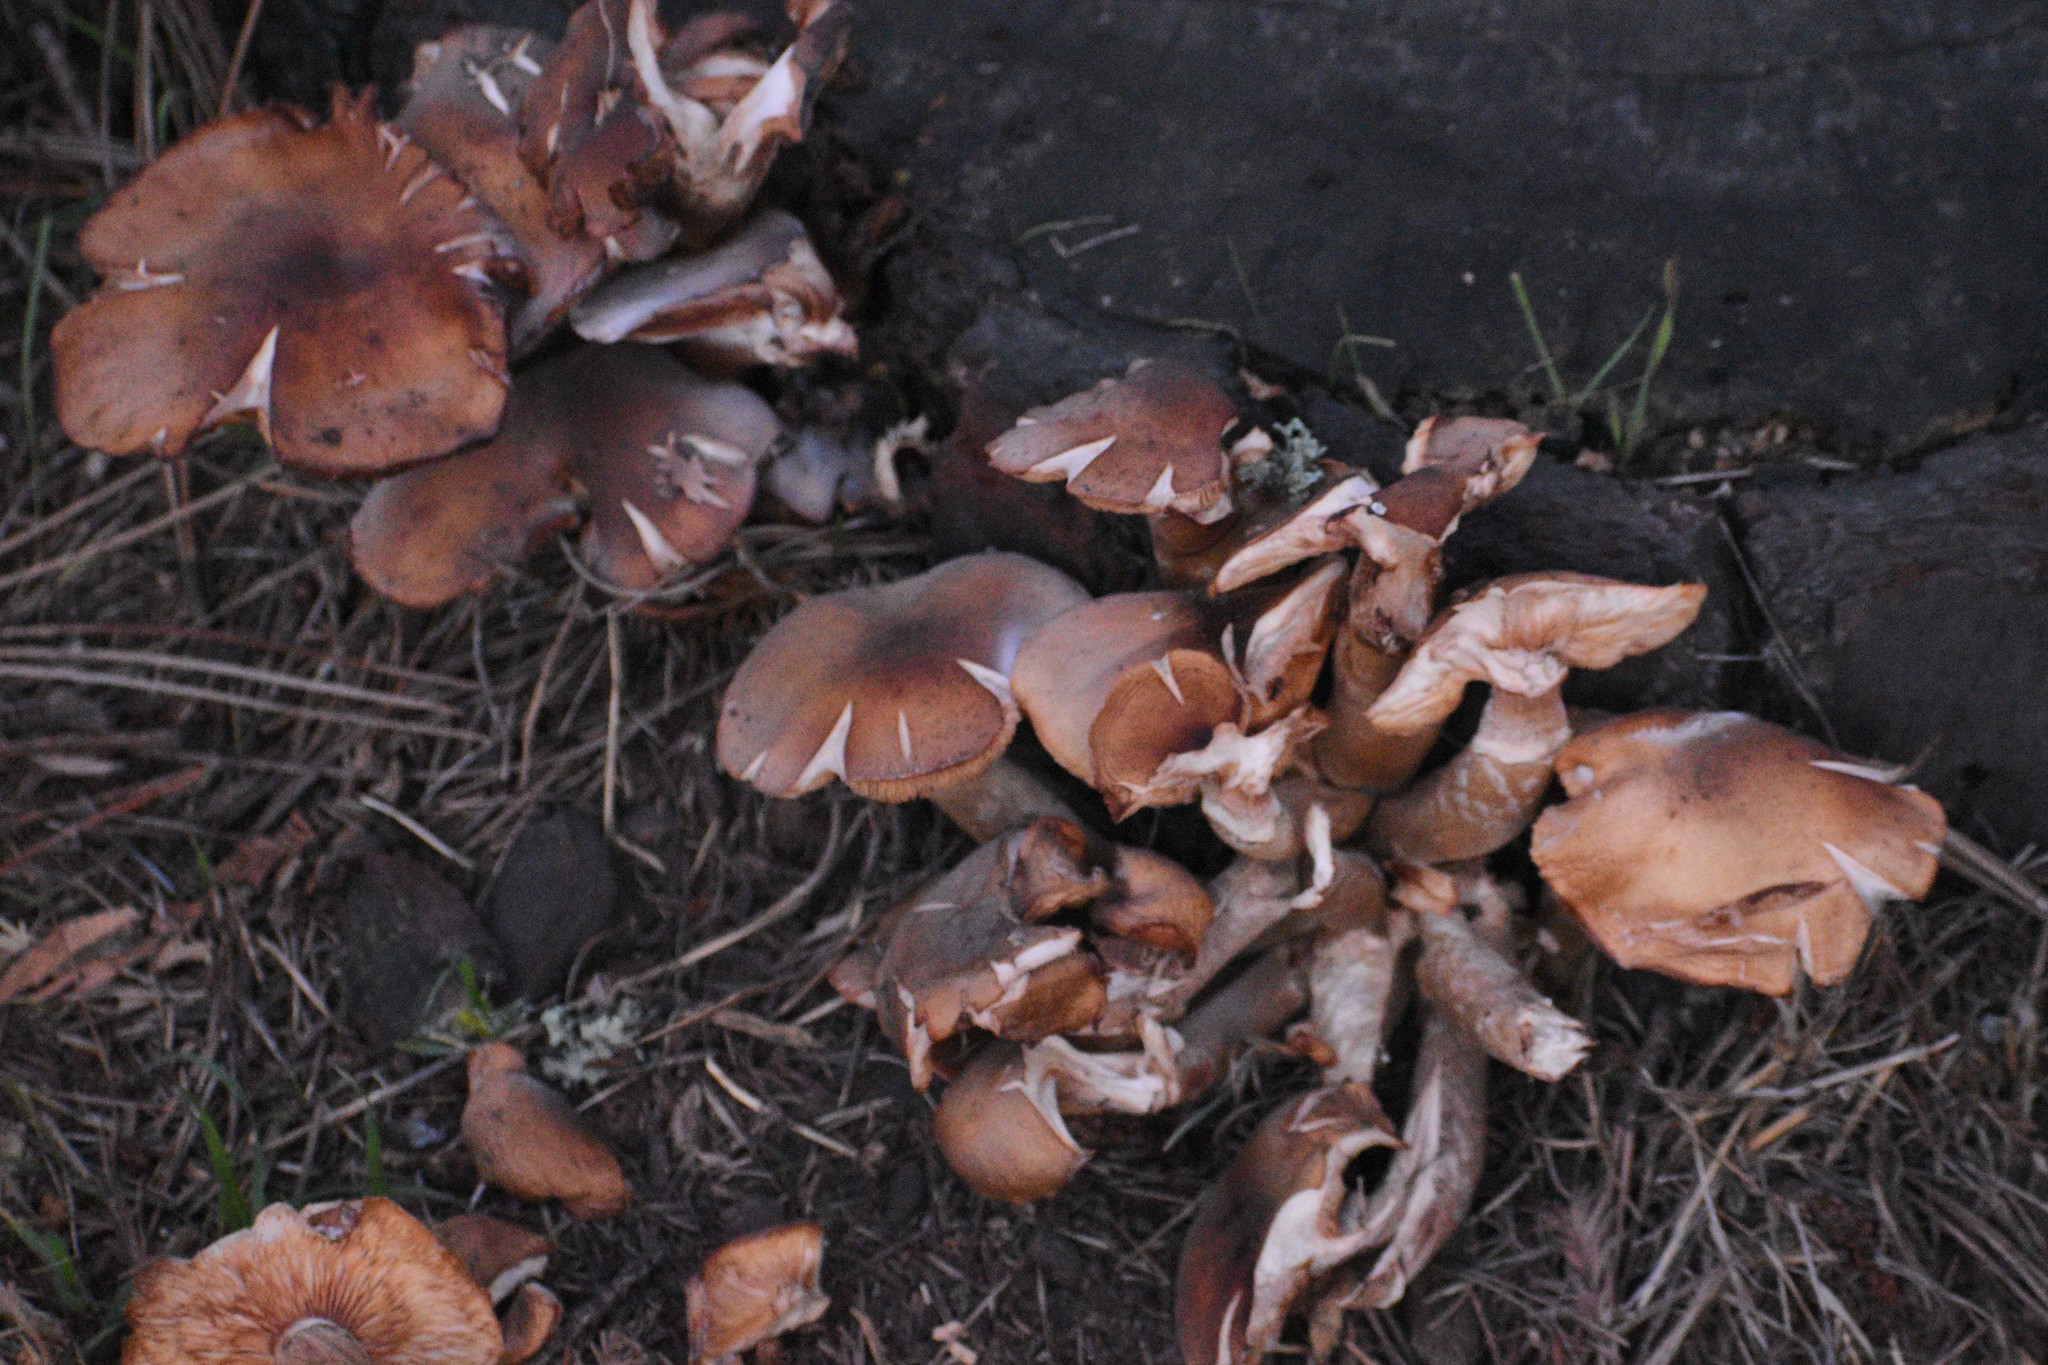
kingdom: Fungi
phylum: Basidiomycota
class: Agaricomycetes
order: Agaricales
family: Physalacriaceae
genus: Armillaria
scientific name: Armillaria mellea
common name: Honey fungus
